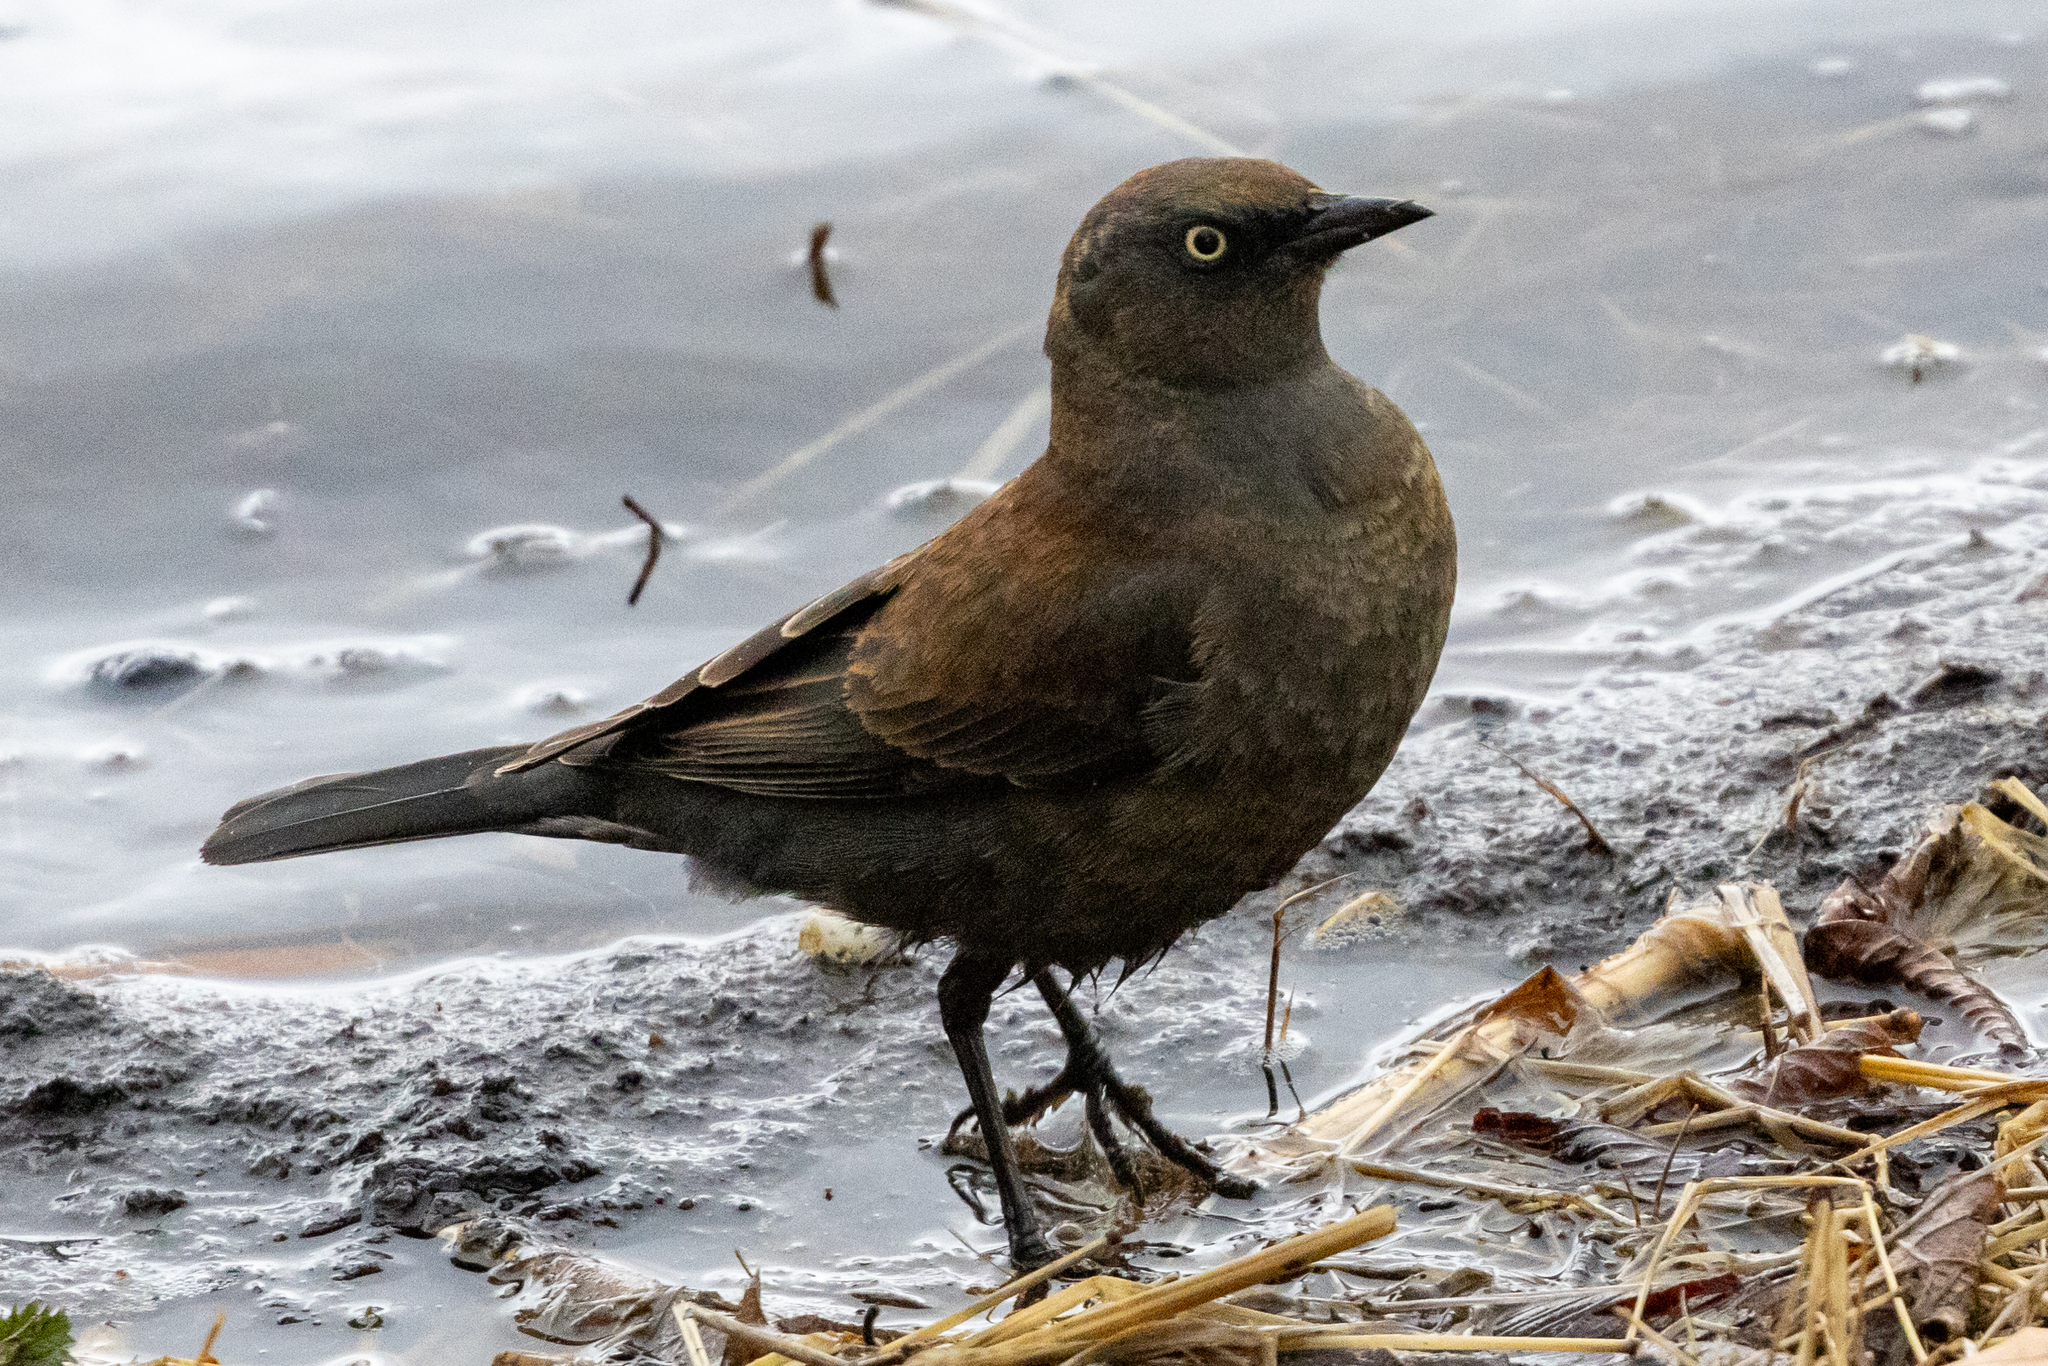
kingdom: Animalia
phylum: Chordata
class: Aves
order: Passeriformes
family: Icteridae
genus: Euphagus
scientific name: Euphagus carolinus
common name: Rusty blackbird
